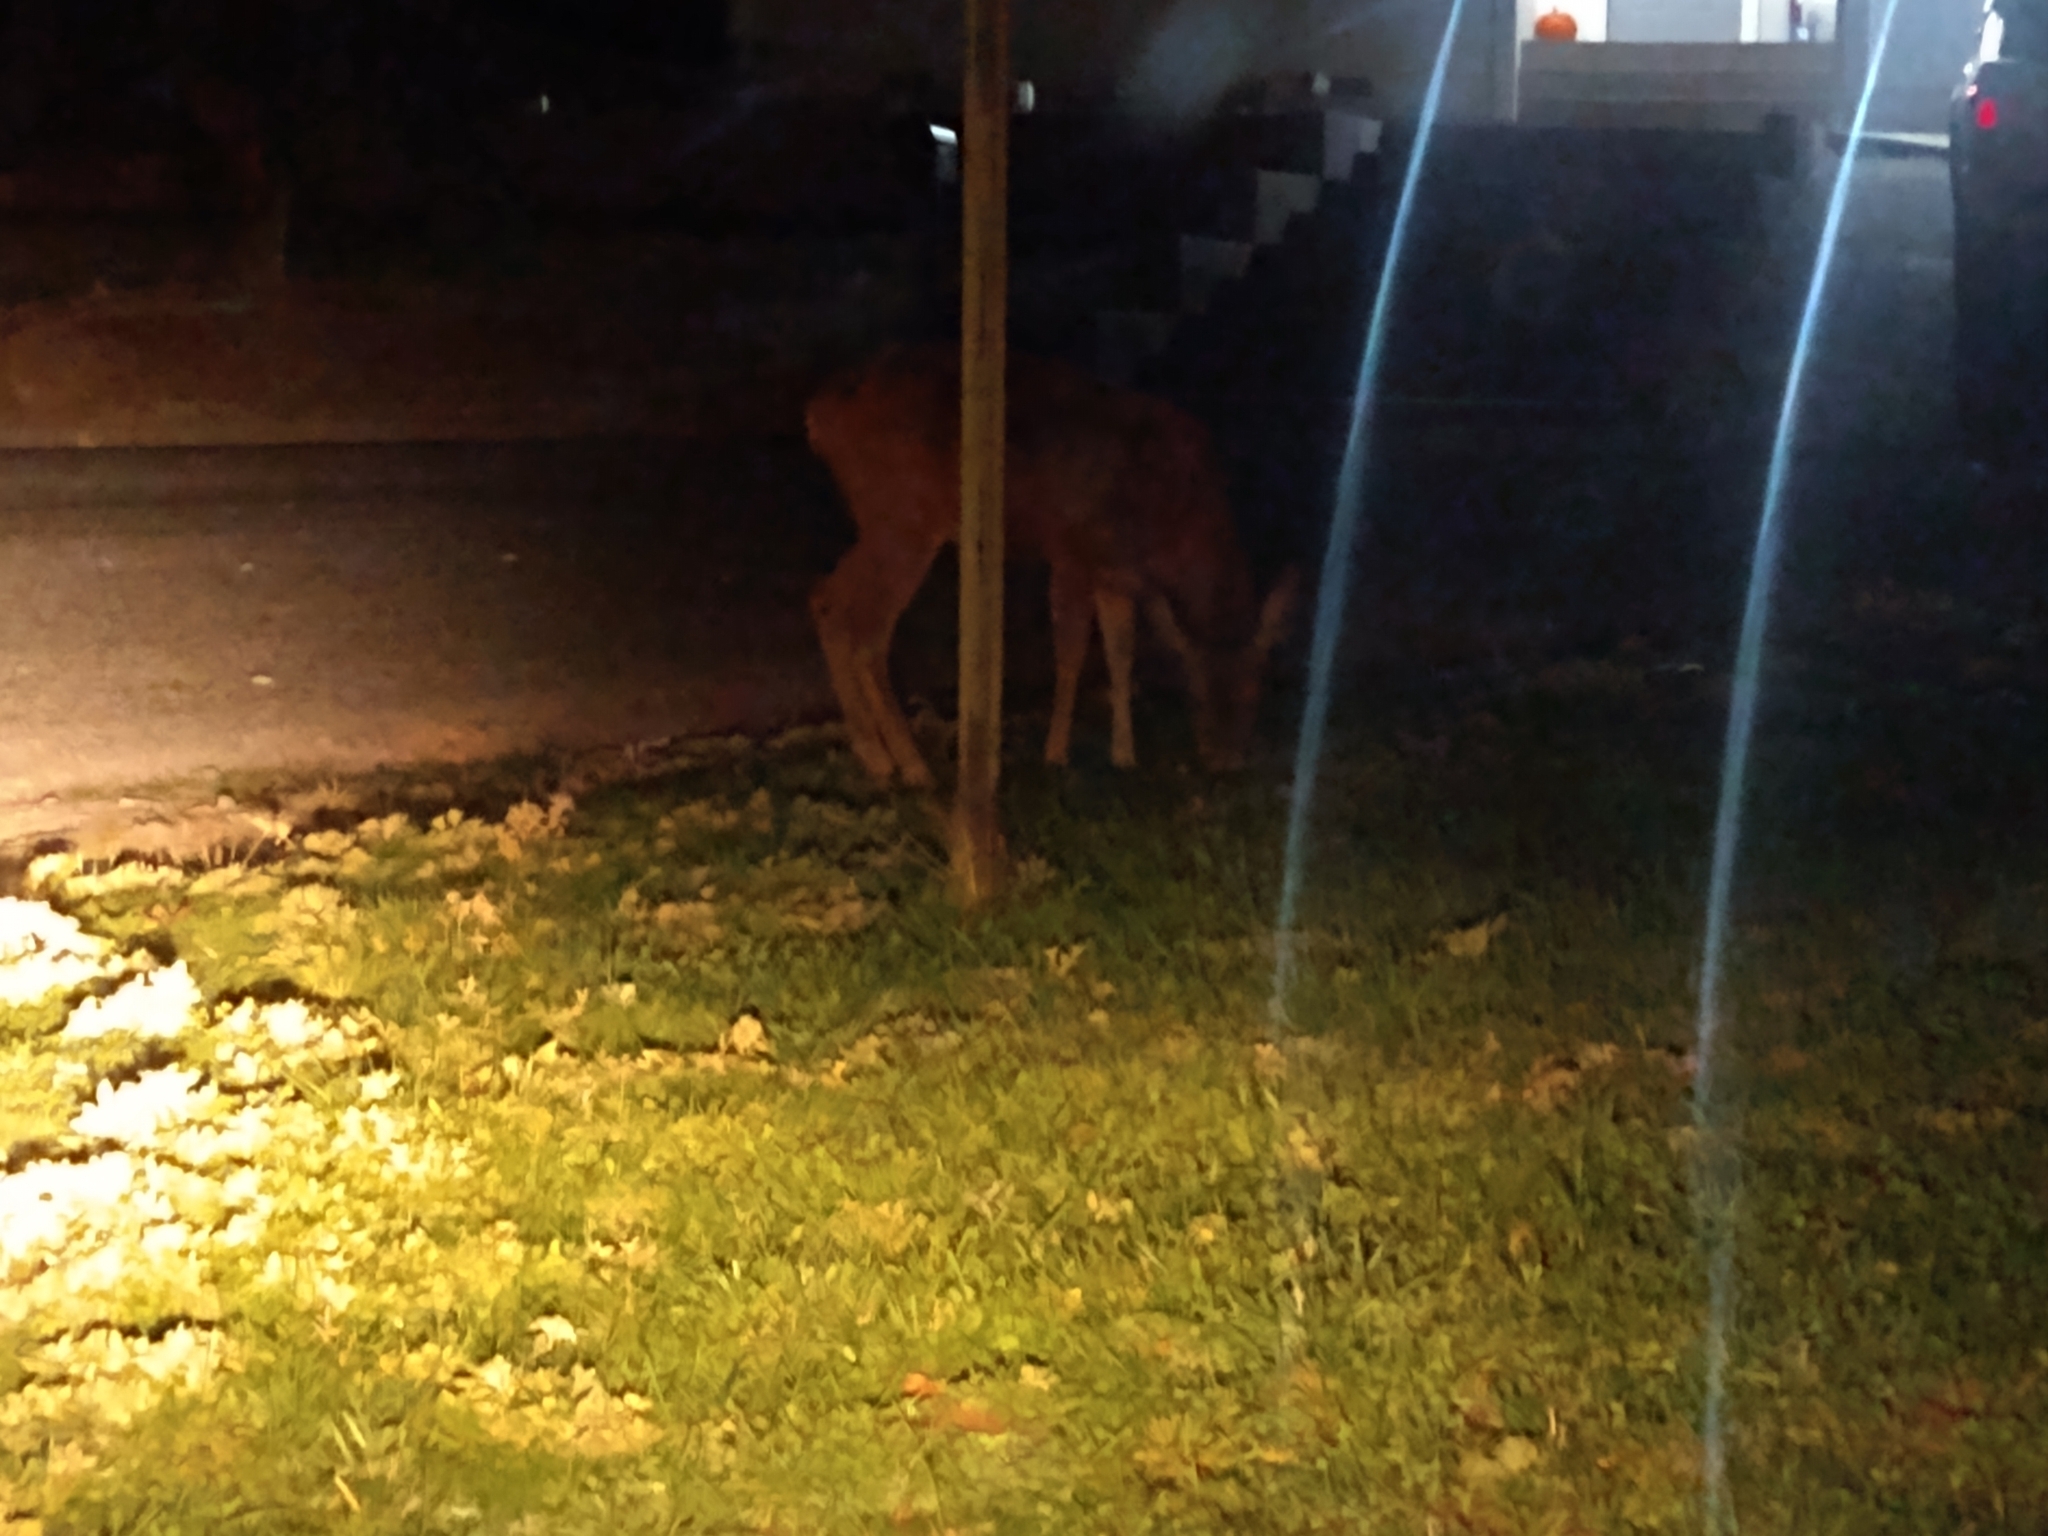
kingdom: Animalia
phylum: Chordata
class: Mammalia
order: Artiodactyla
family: Cervidae
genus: Odocoileus
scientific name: Odocoileus hemionus
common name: Mule deer
